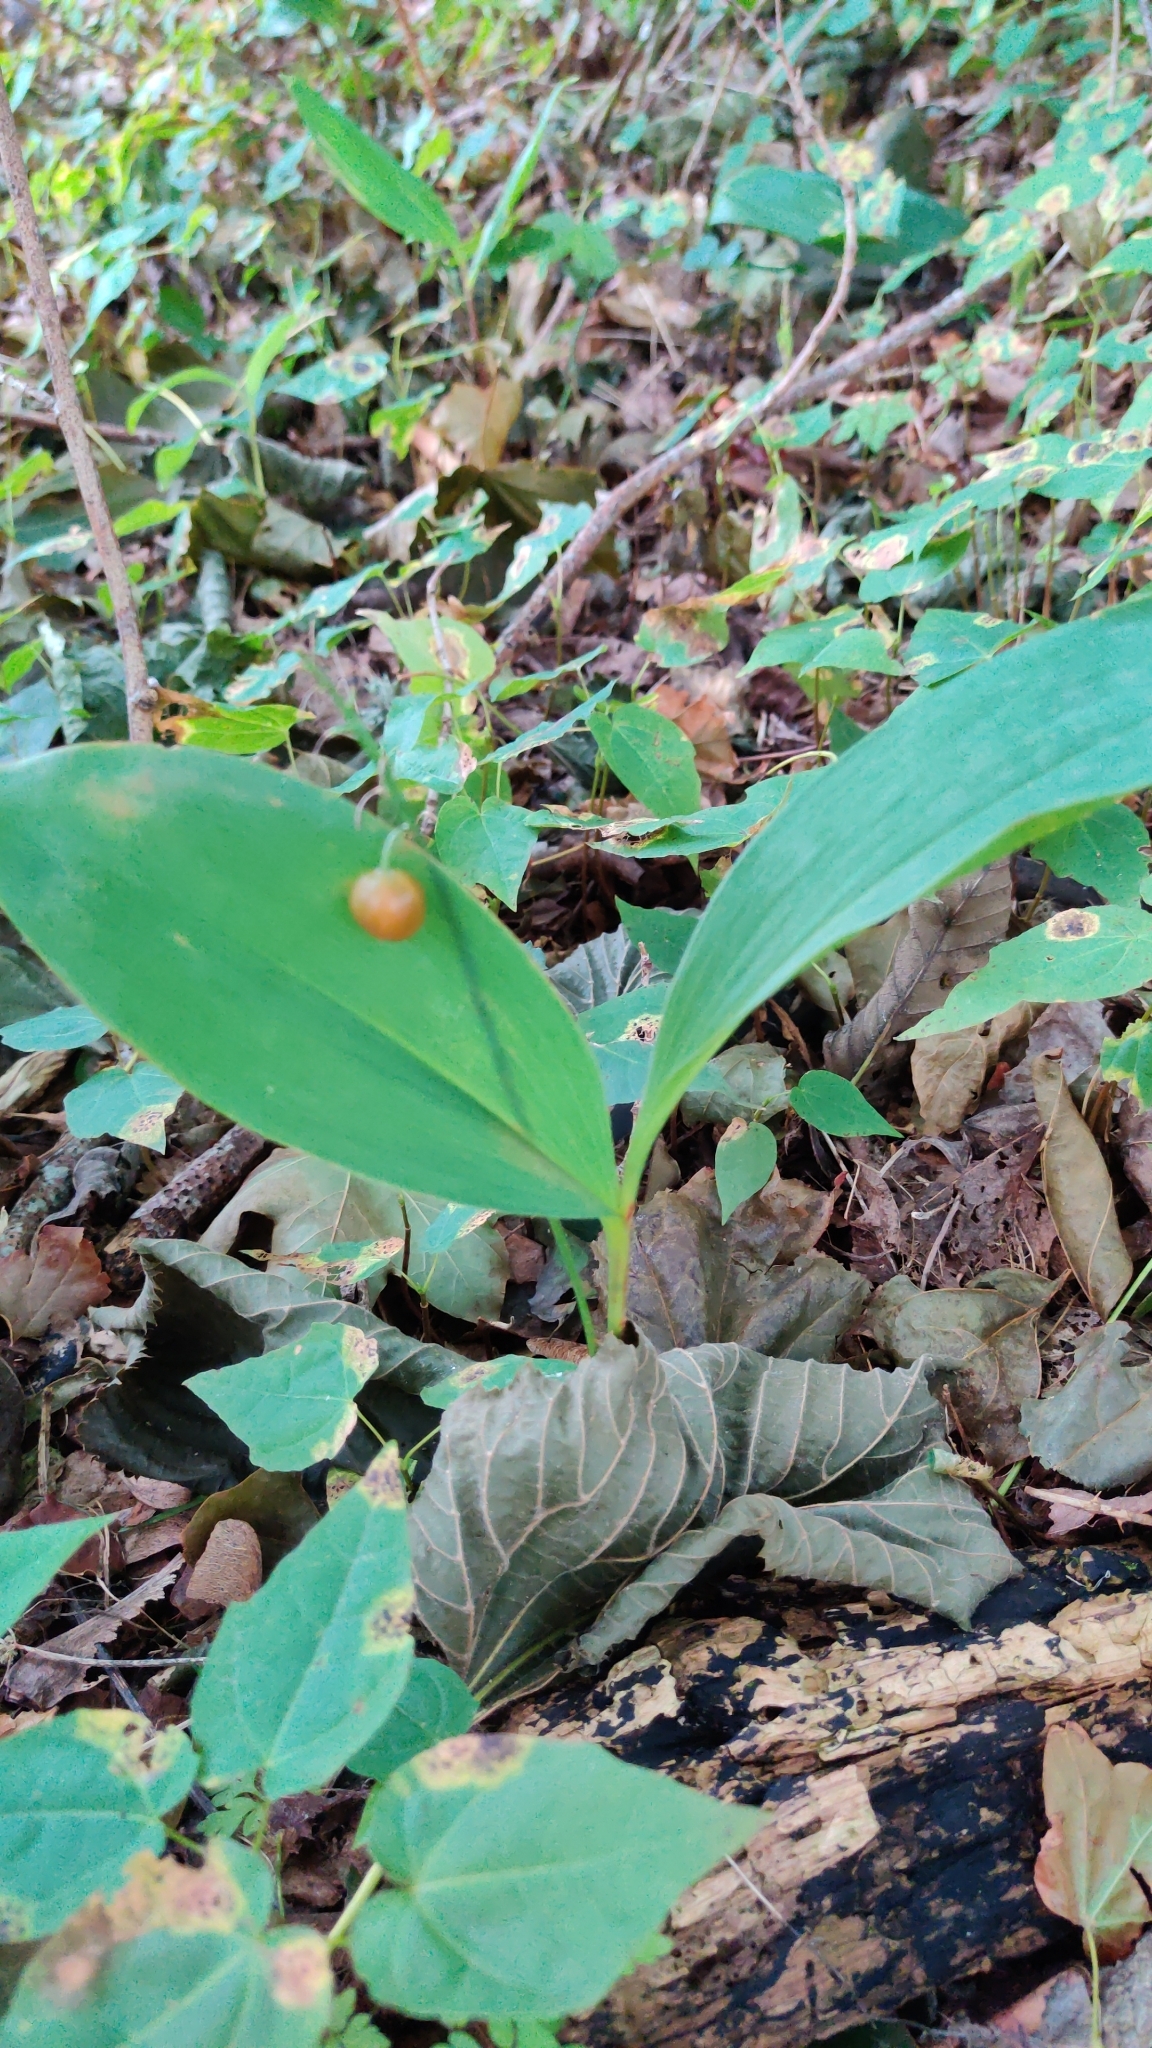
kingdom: Plantae
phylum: Tracheophyta
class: Liliopsida
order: Asparagales
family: Asparagaceae
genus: Convallaria
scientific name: Convallaria majalis
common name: Lily-of-the-valley
